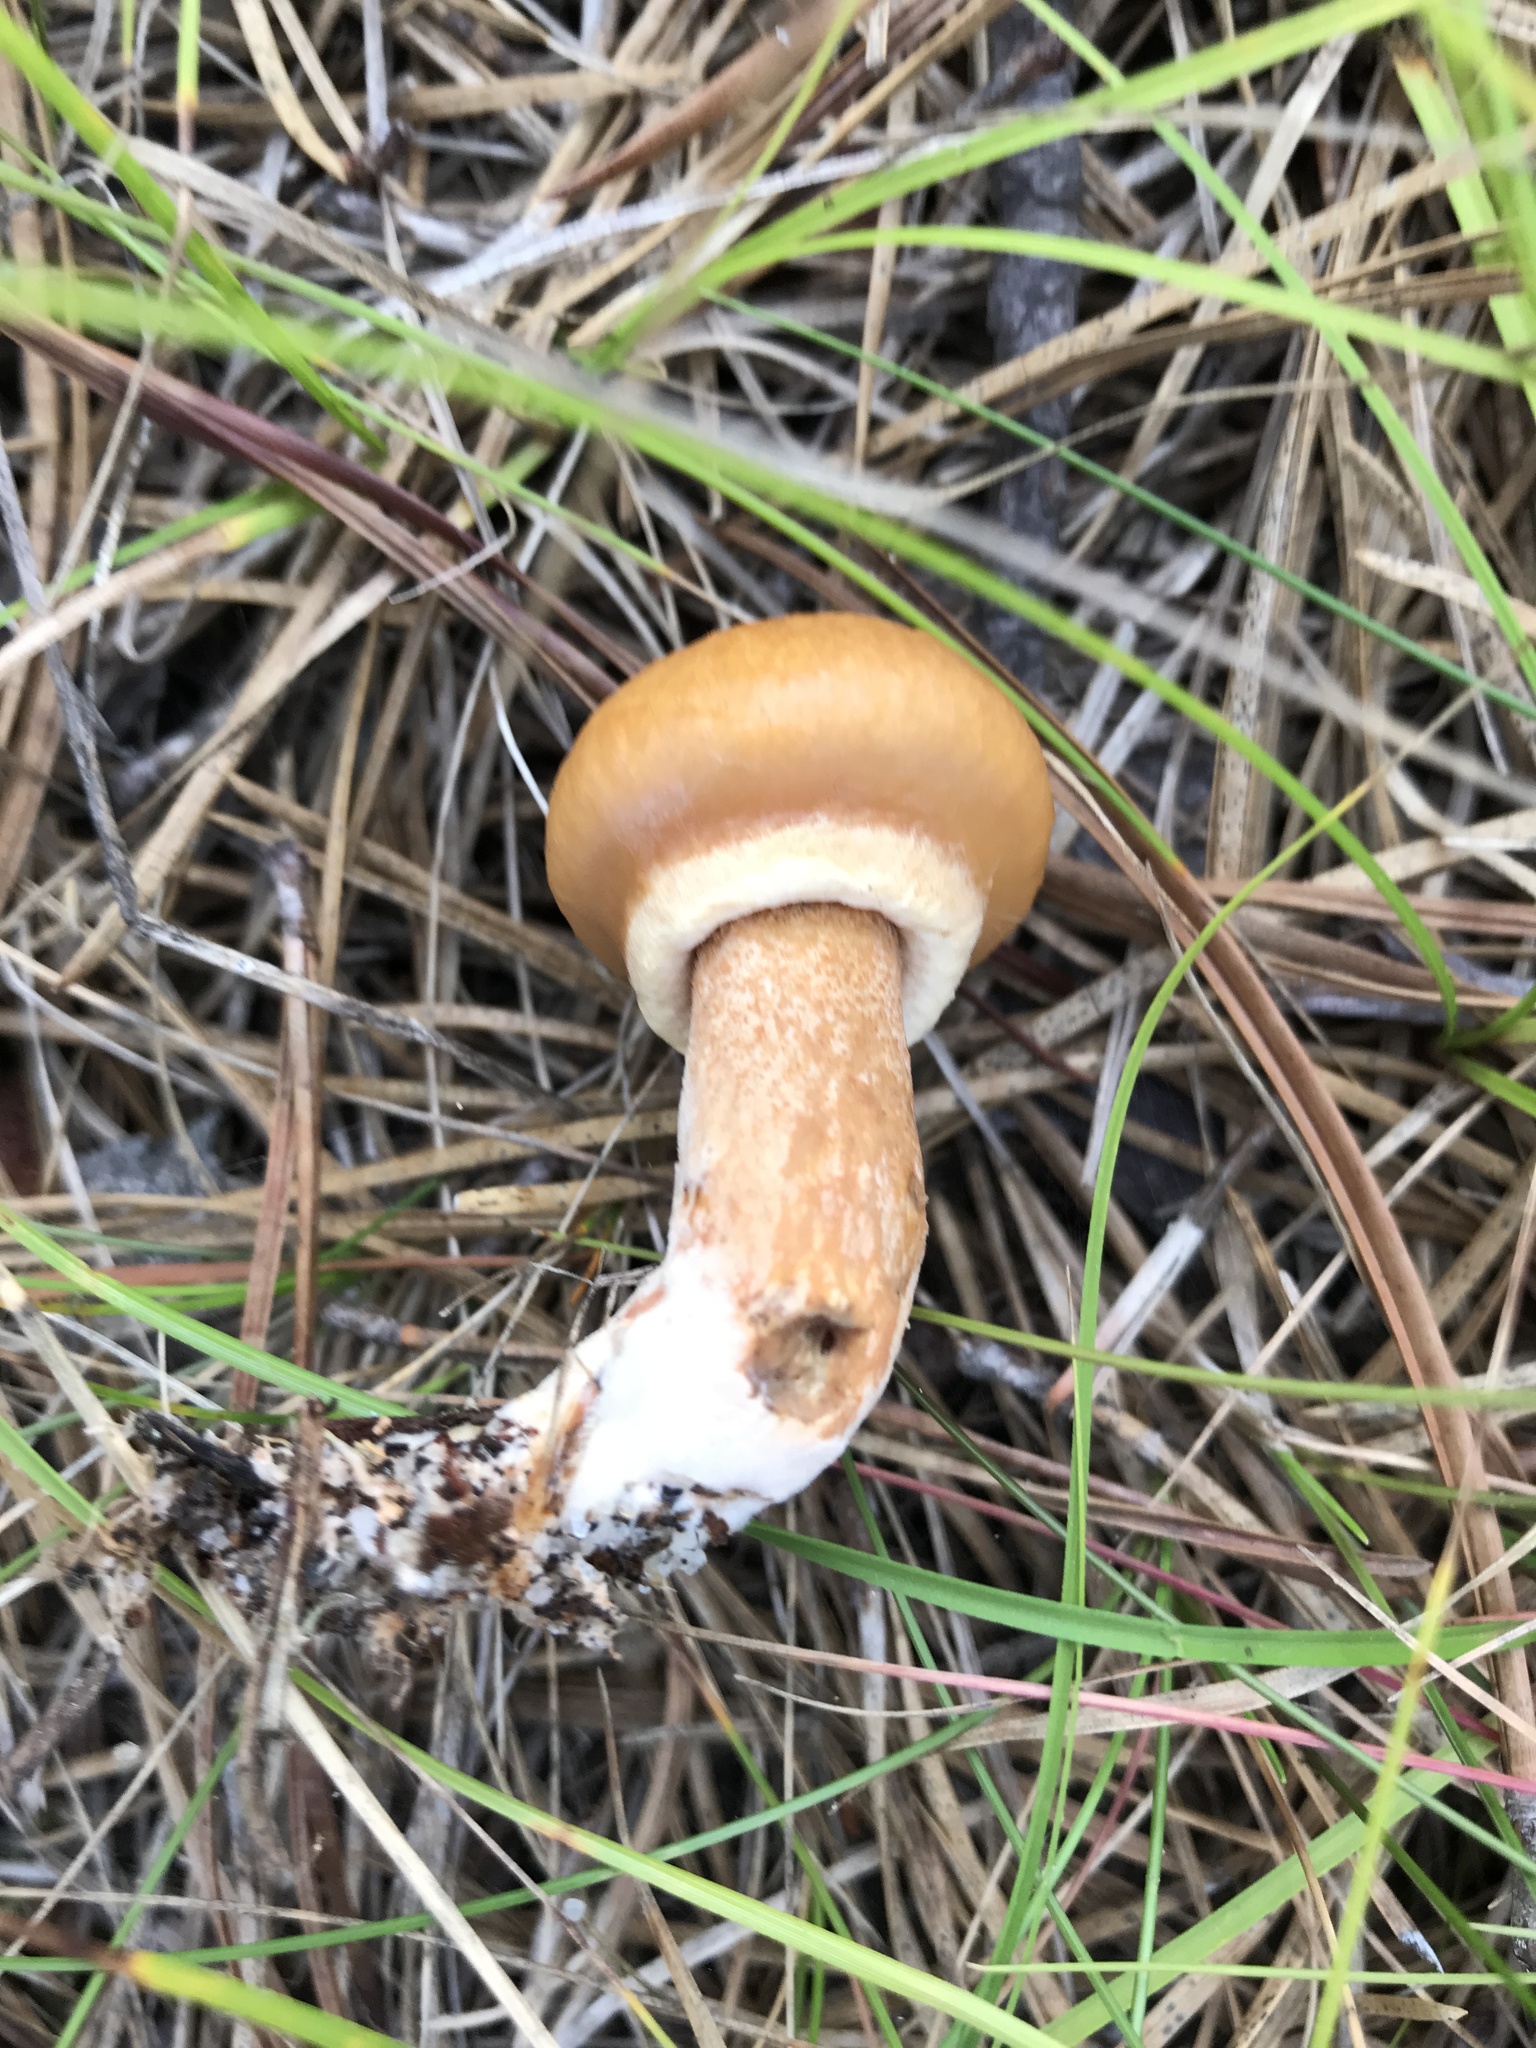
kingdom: Fungi
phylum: Basidiomycota
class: Agaricomycetes
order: Boletales
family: Suillaceae
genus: Suillus
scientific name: Suillus salmonicolor
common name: Slippery jill
